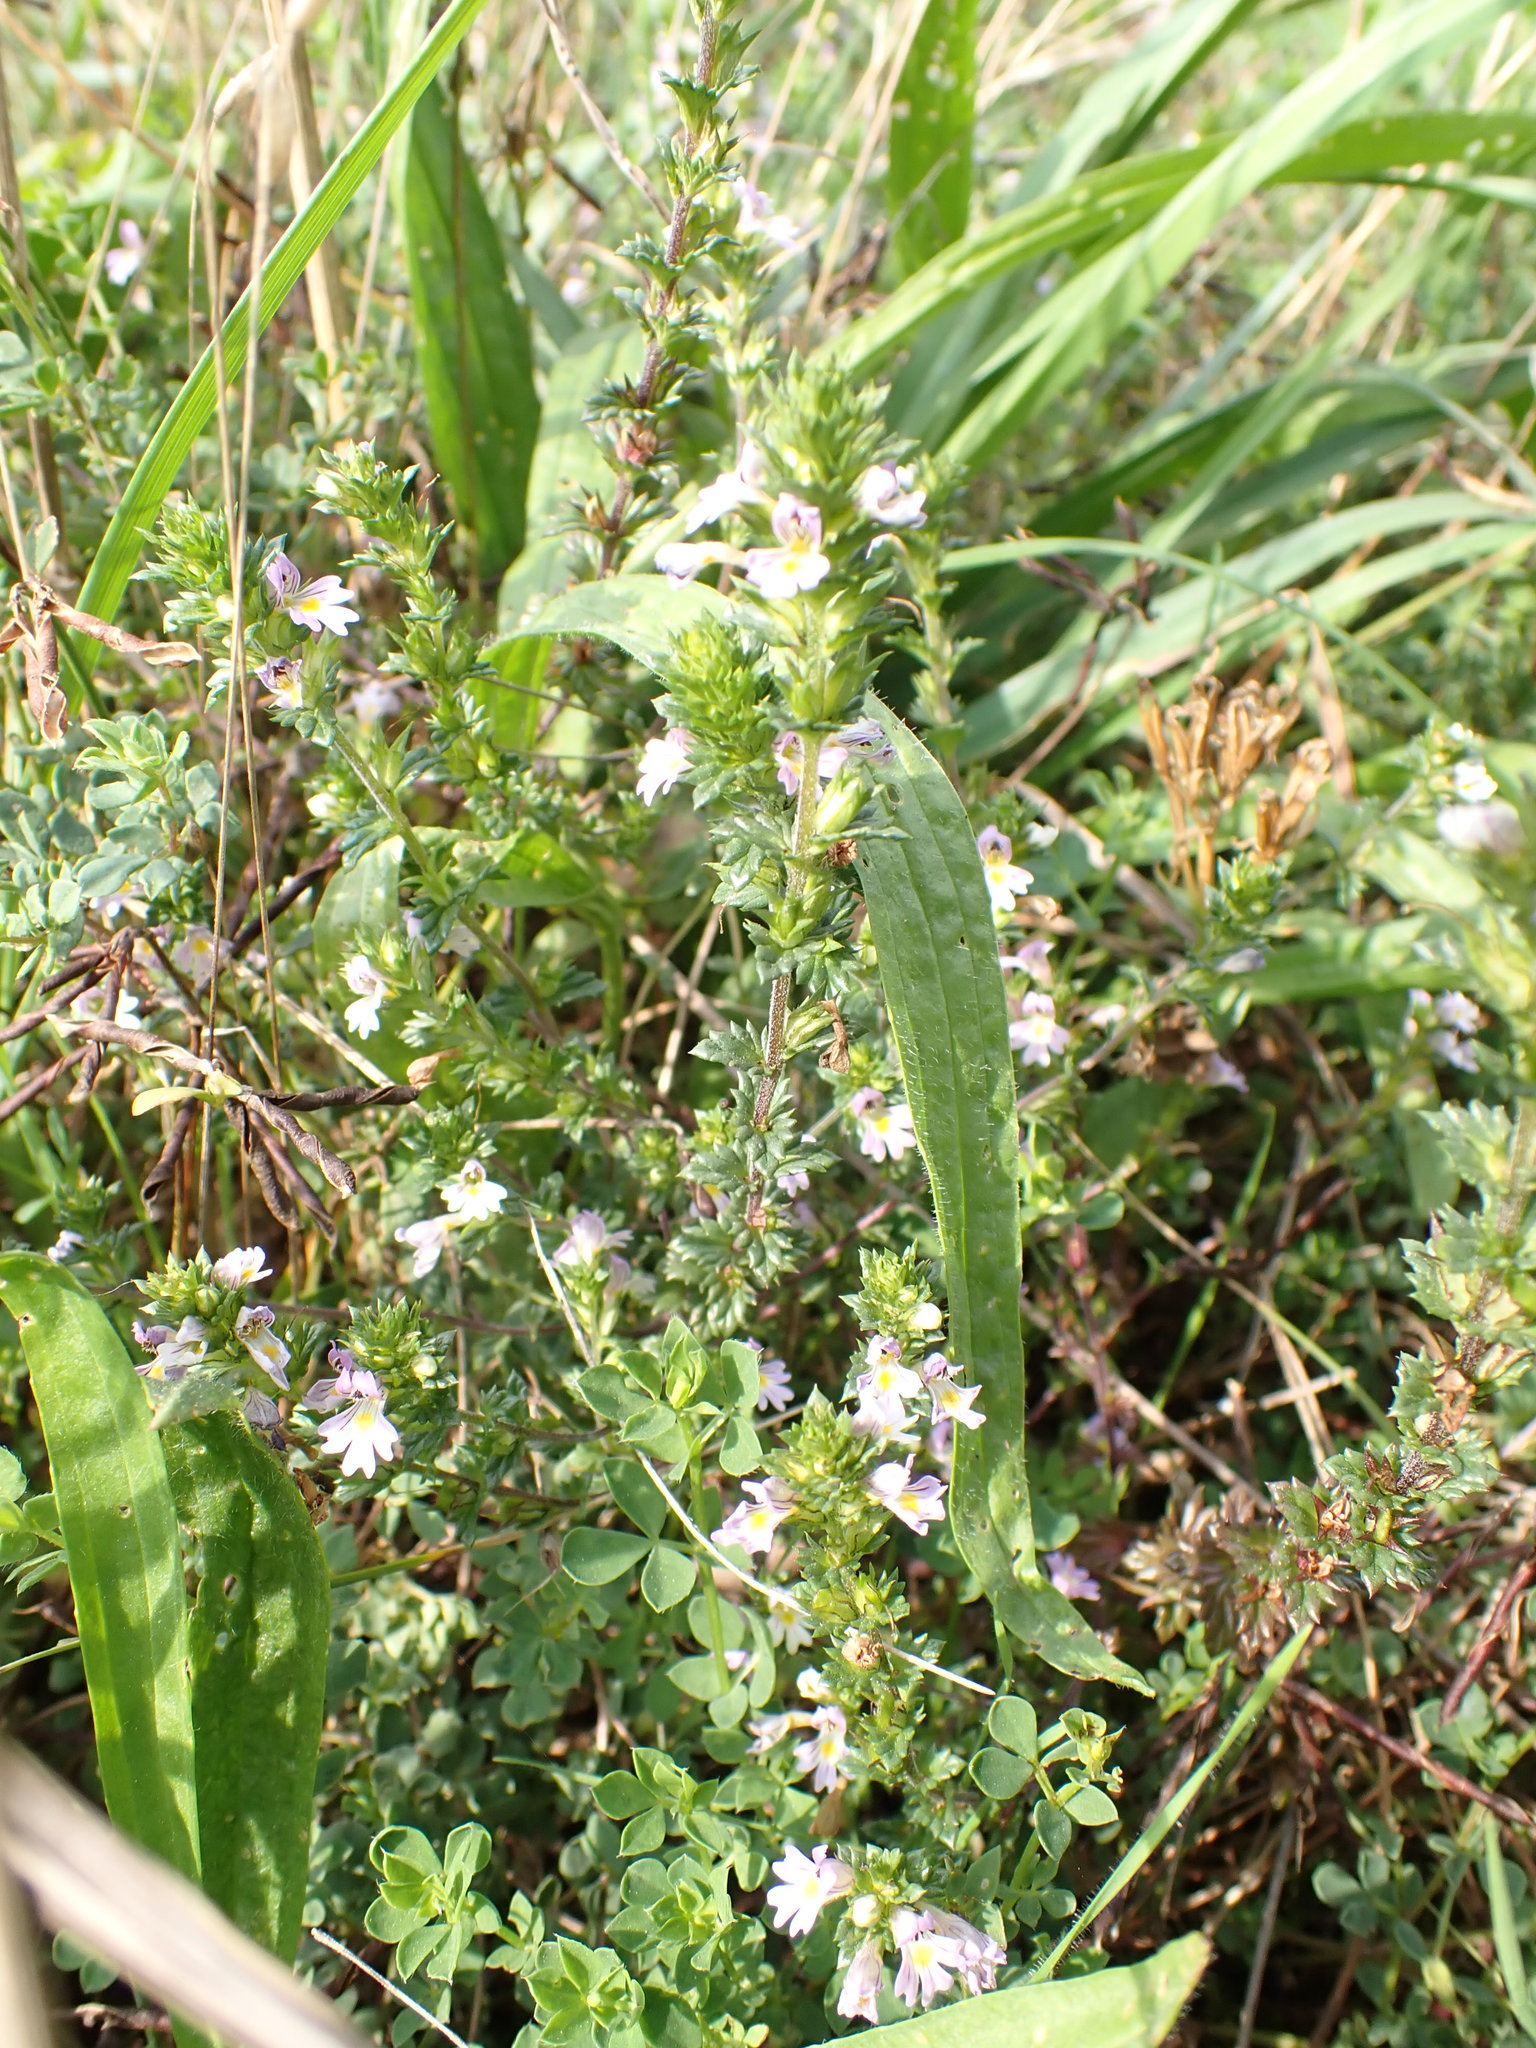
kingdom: Plantae
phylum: Tracheophyta
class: Magnoliopsida
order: Lamiales
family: Orobanchaceae
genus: Euphrasia
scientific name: Euphrasia confusa
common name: Little kneeling eyebright
